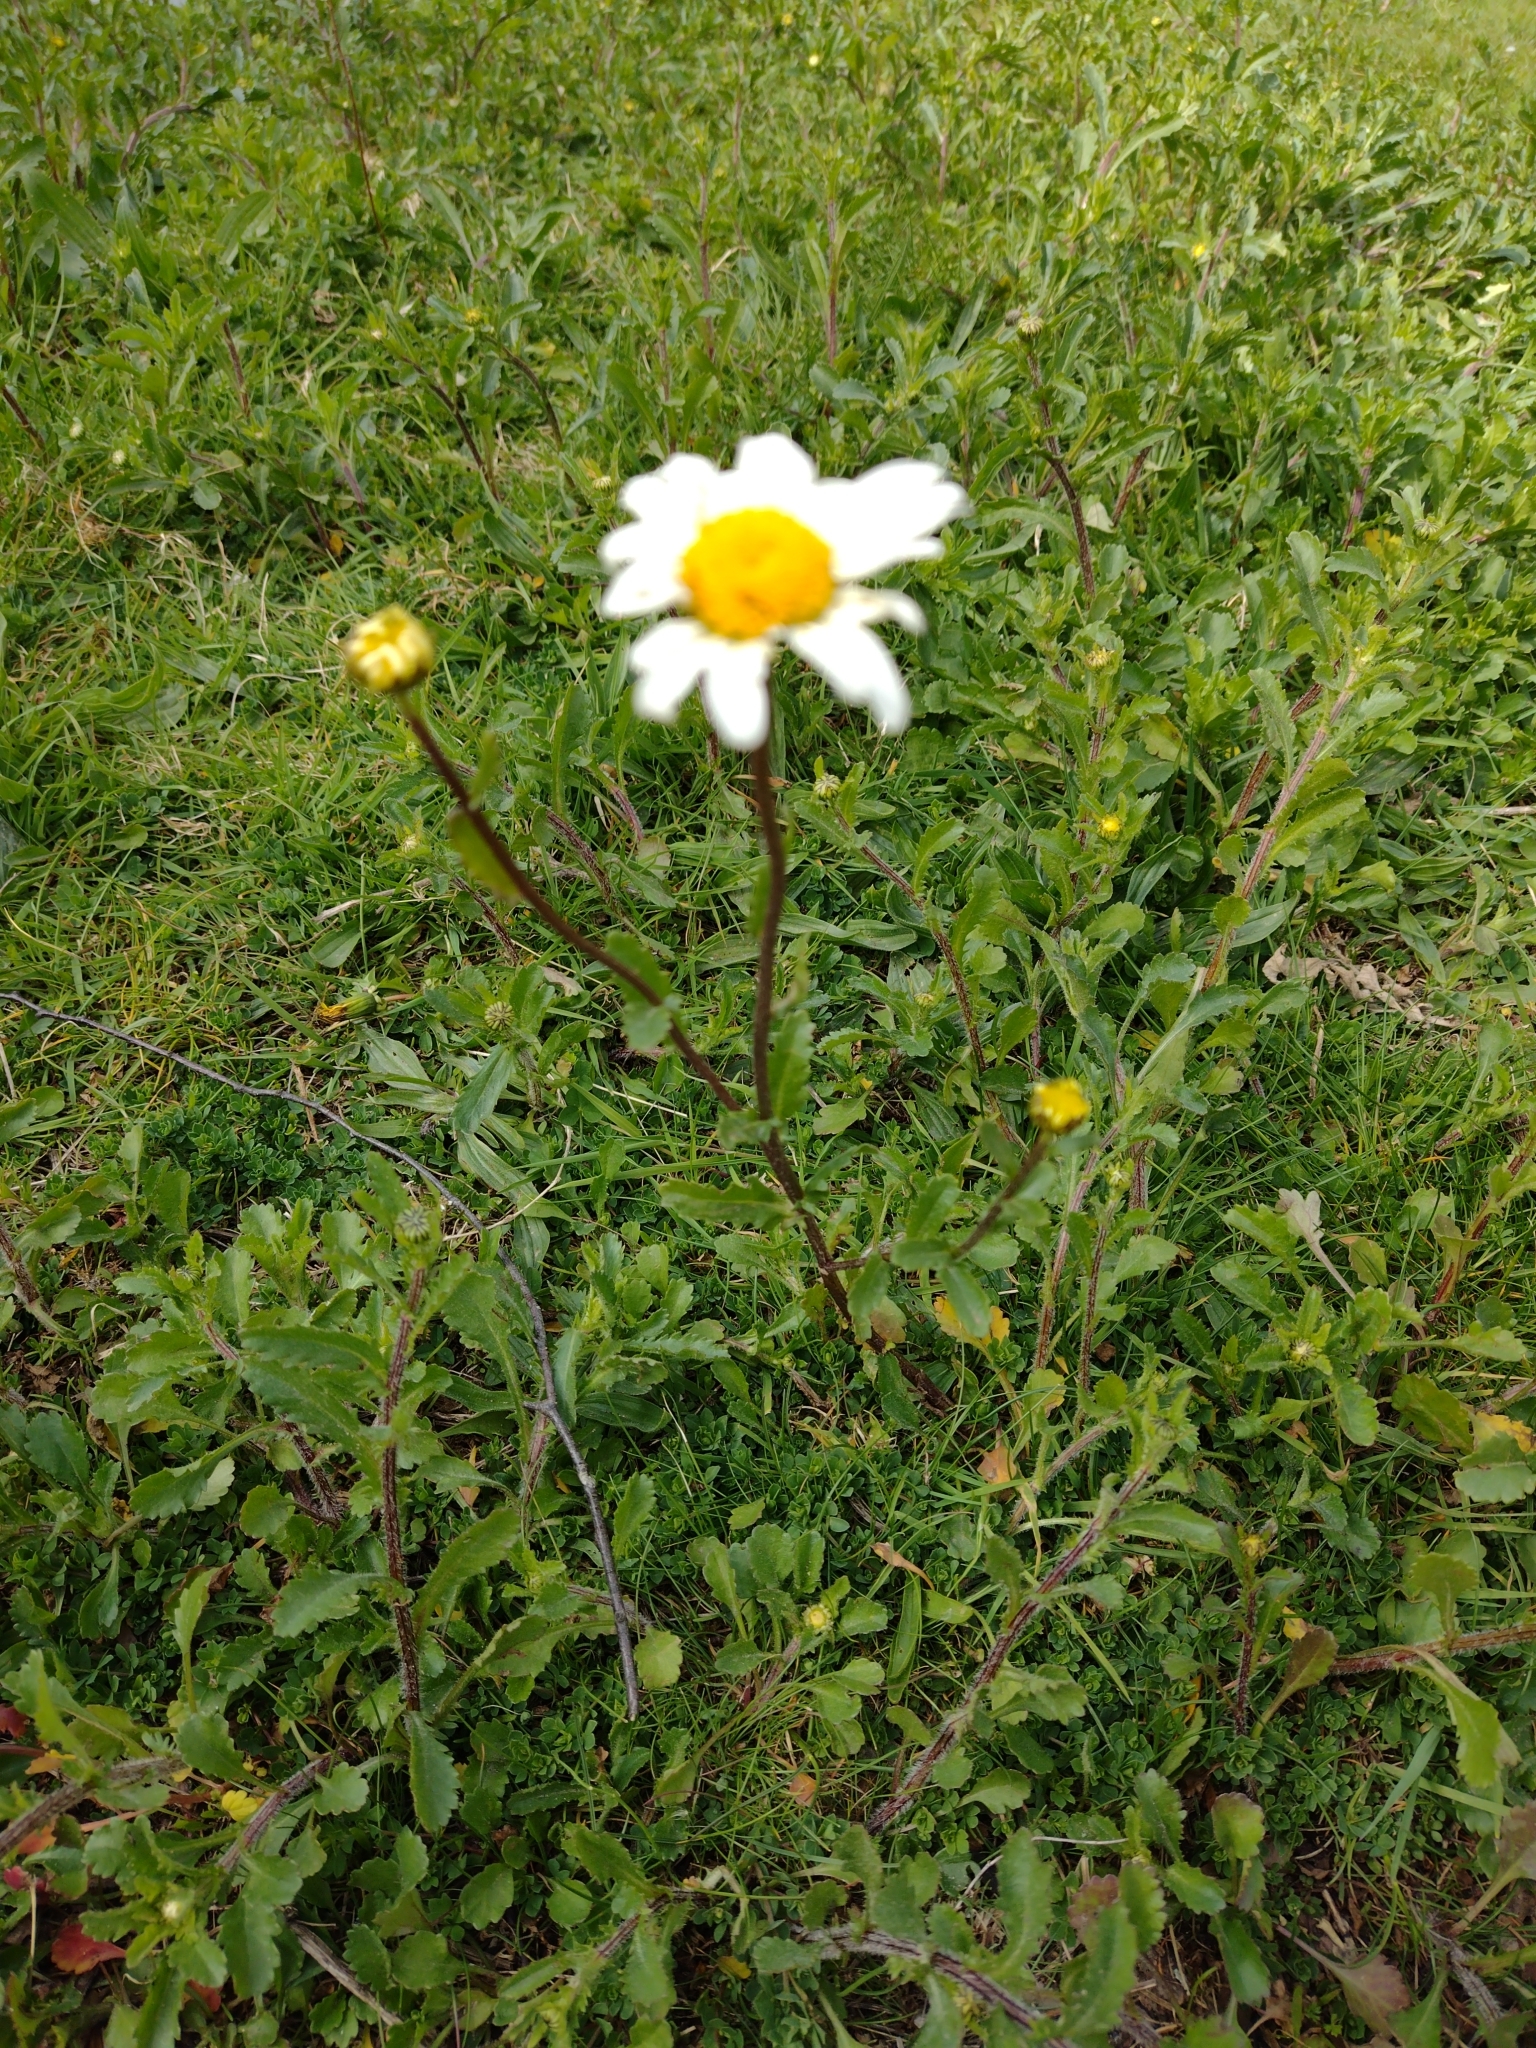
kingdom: Plantae
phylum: Tracheophyta
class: Magnoliopsida
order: Asterales
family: Asteraceae
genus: Leucanthemum
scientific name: Leucanthemum vulgare
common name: Oxeye daisy
